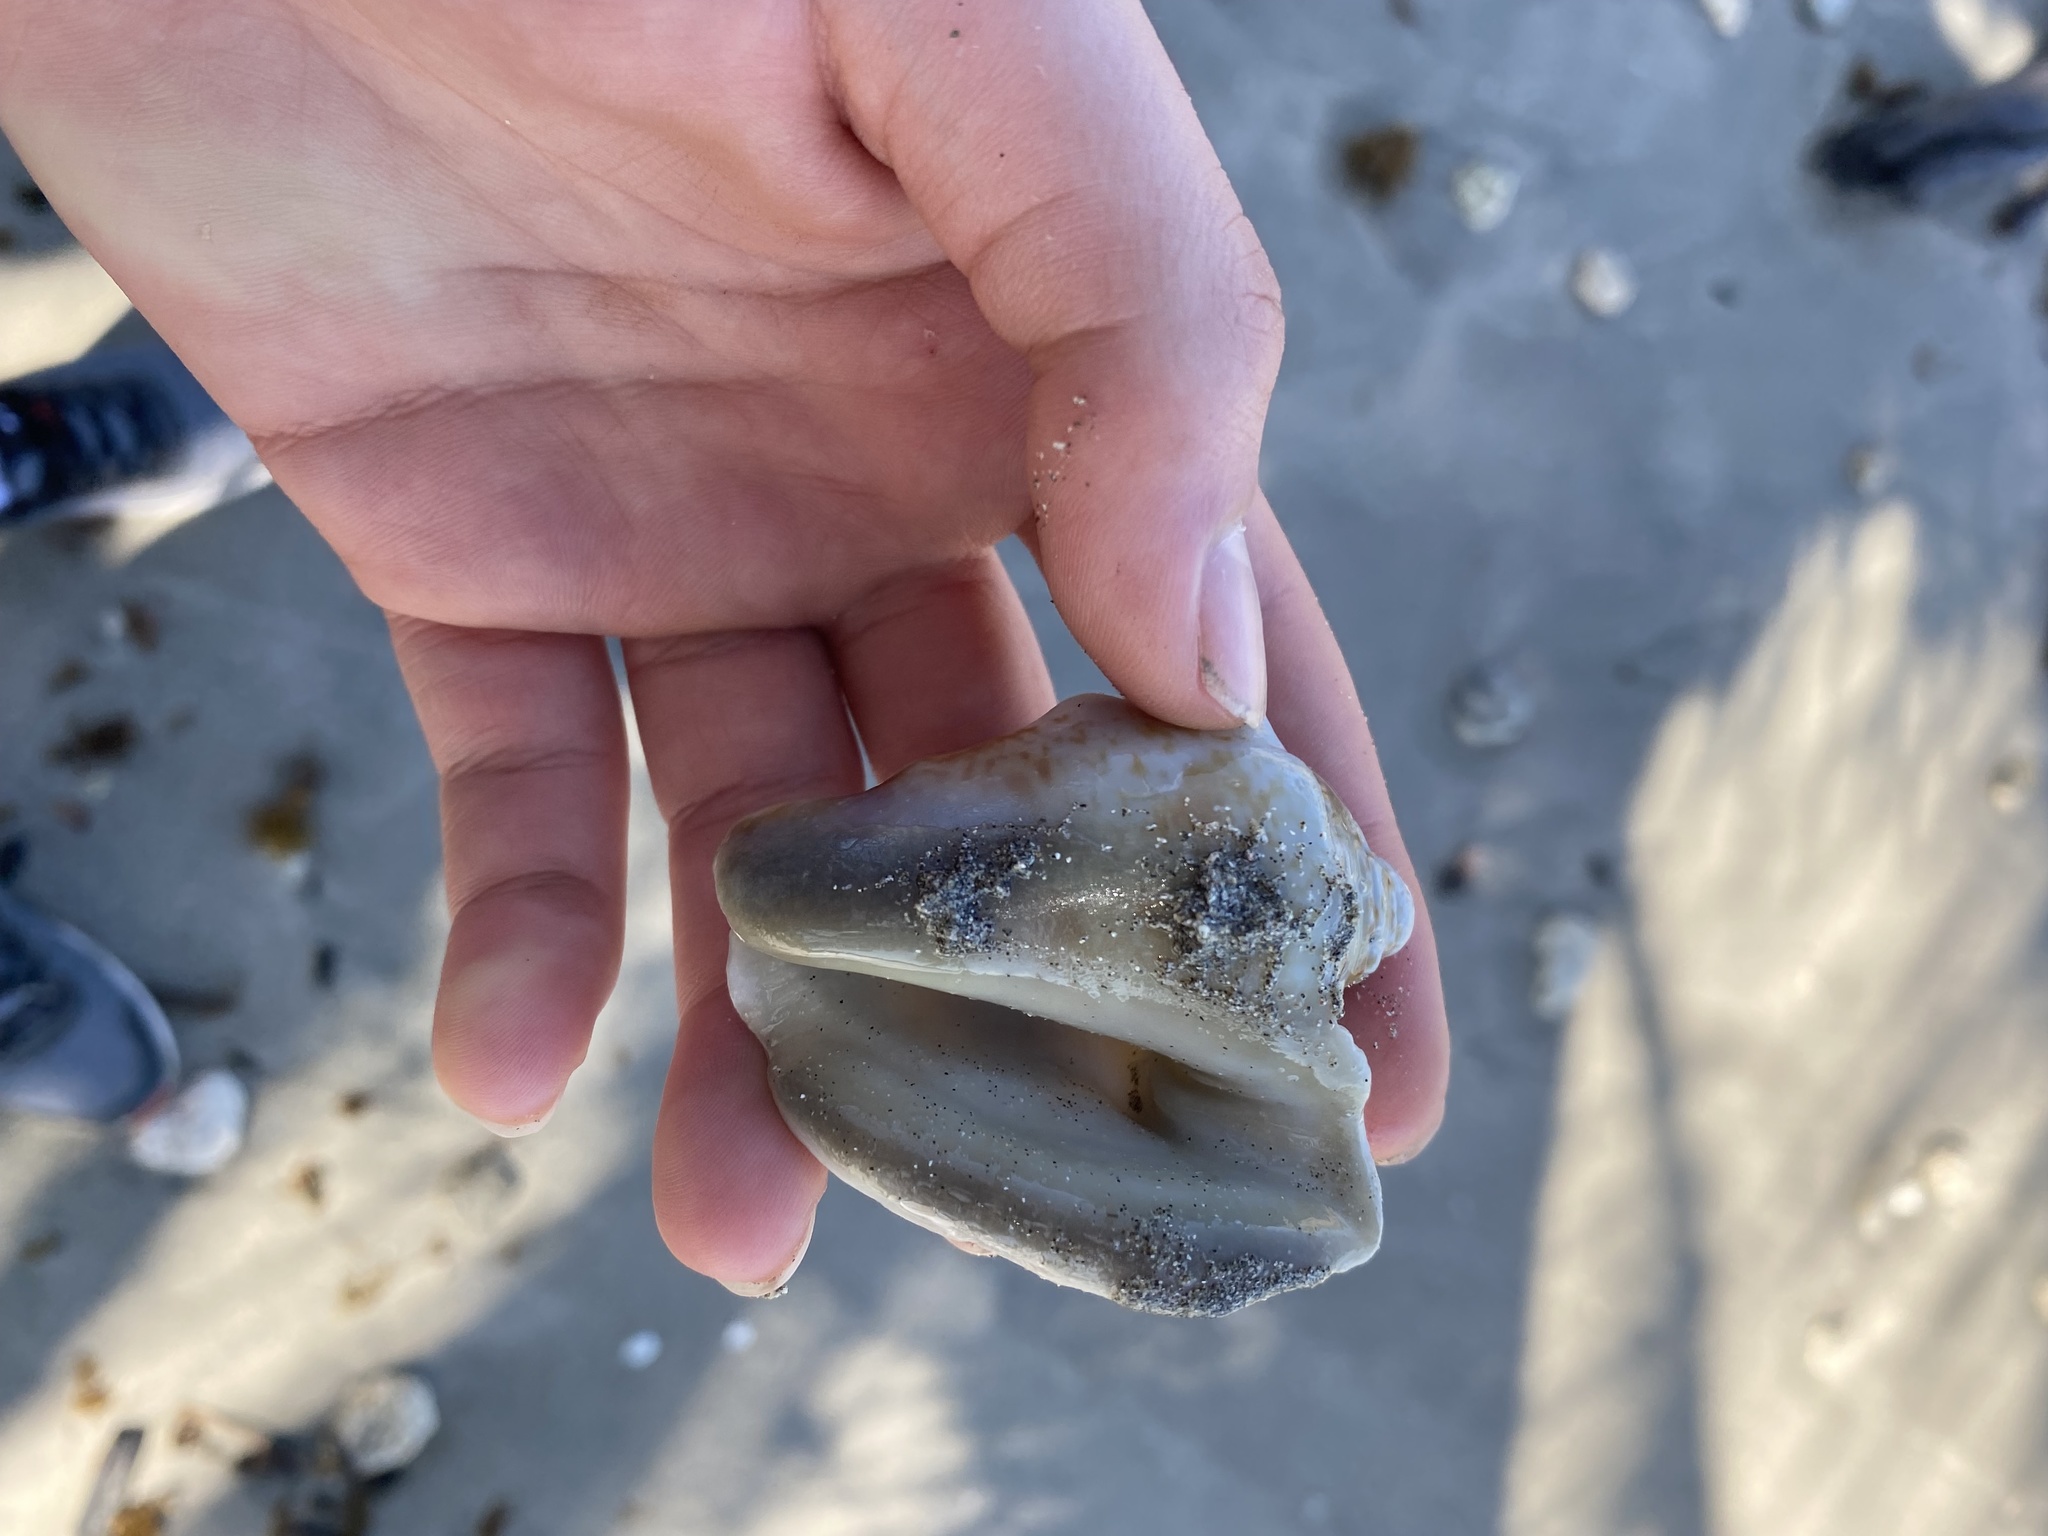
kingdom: Animalia
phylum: Mollusca
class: Gastropoda
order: Littorinimorpha
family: Strombidae
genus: Lobatus
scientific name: Lobatus raninus
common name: Hawk-wing conch
